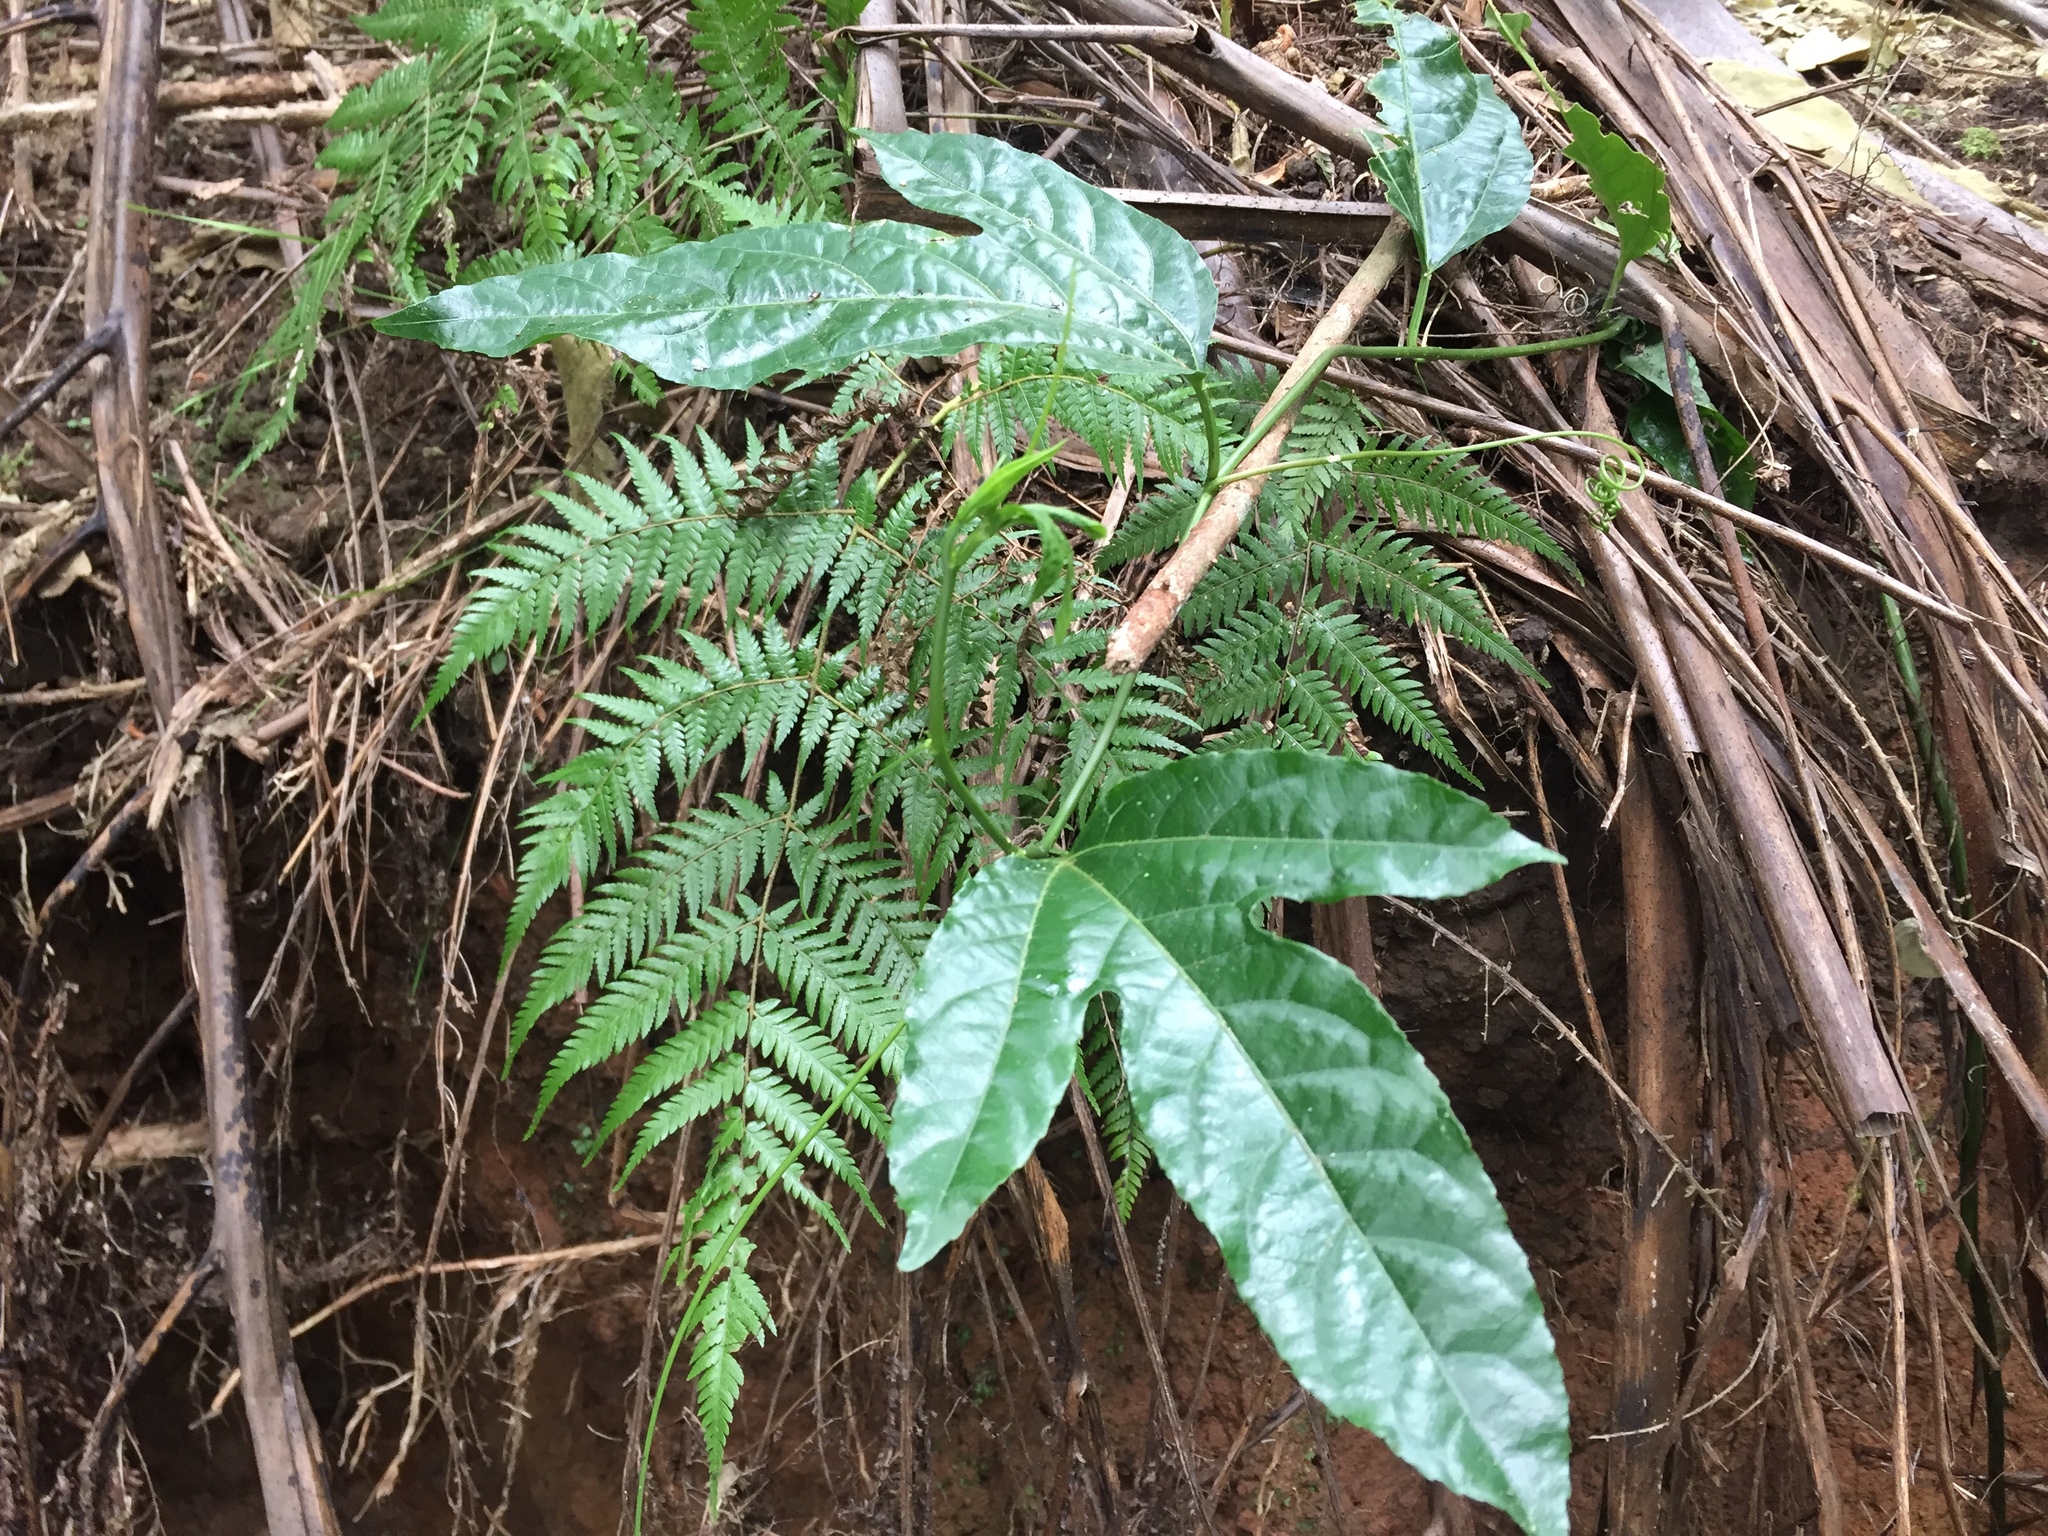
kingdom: Plantae
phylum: Tracheophyta
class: Magnoliopsida
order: Malpighiales
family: Passifloraceae
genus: Passiflora
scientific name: Passiflora edulis
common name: Purple granadilla
